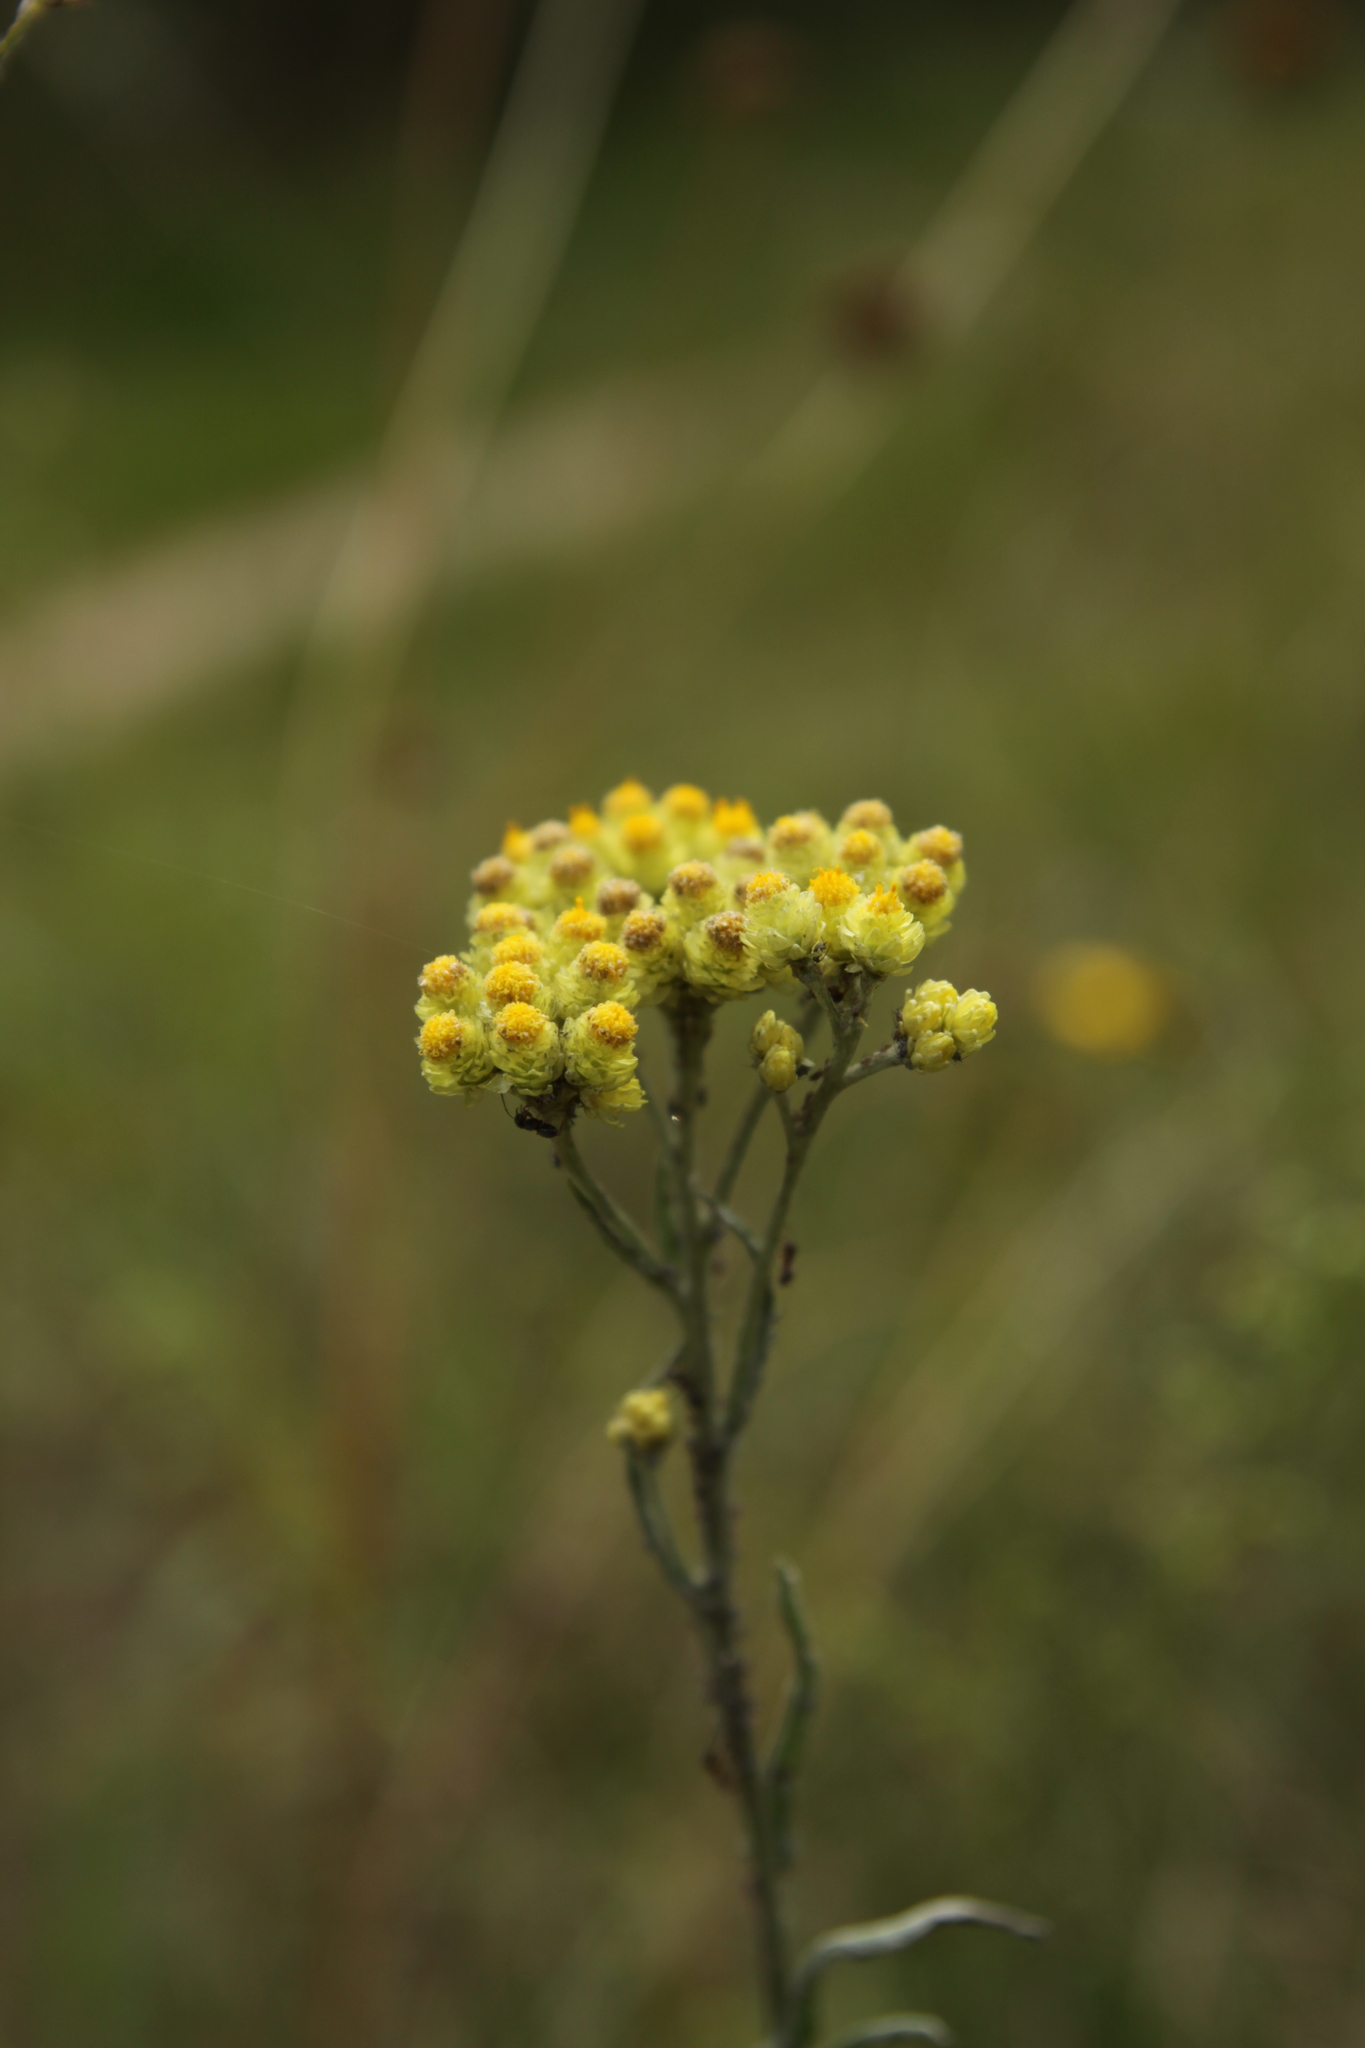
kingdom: Plantae
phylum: Tracheophyta
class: Magnoliopsida
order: Asterales
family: Asteraceae
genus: Helichrysum
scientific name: Helichrysum arenarium
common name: Strawflower
